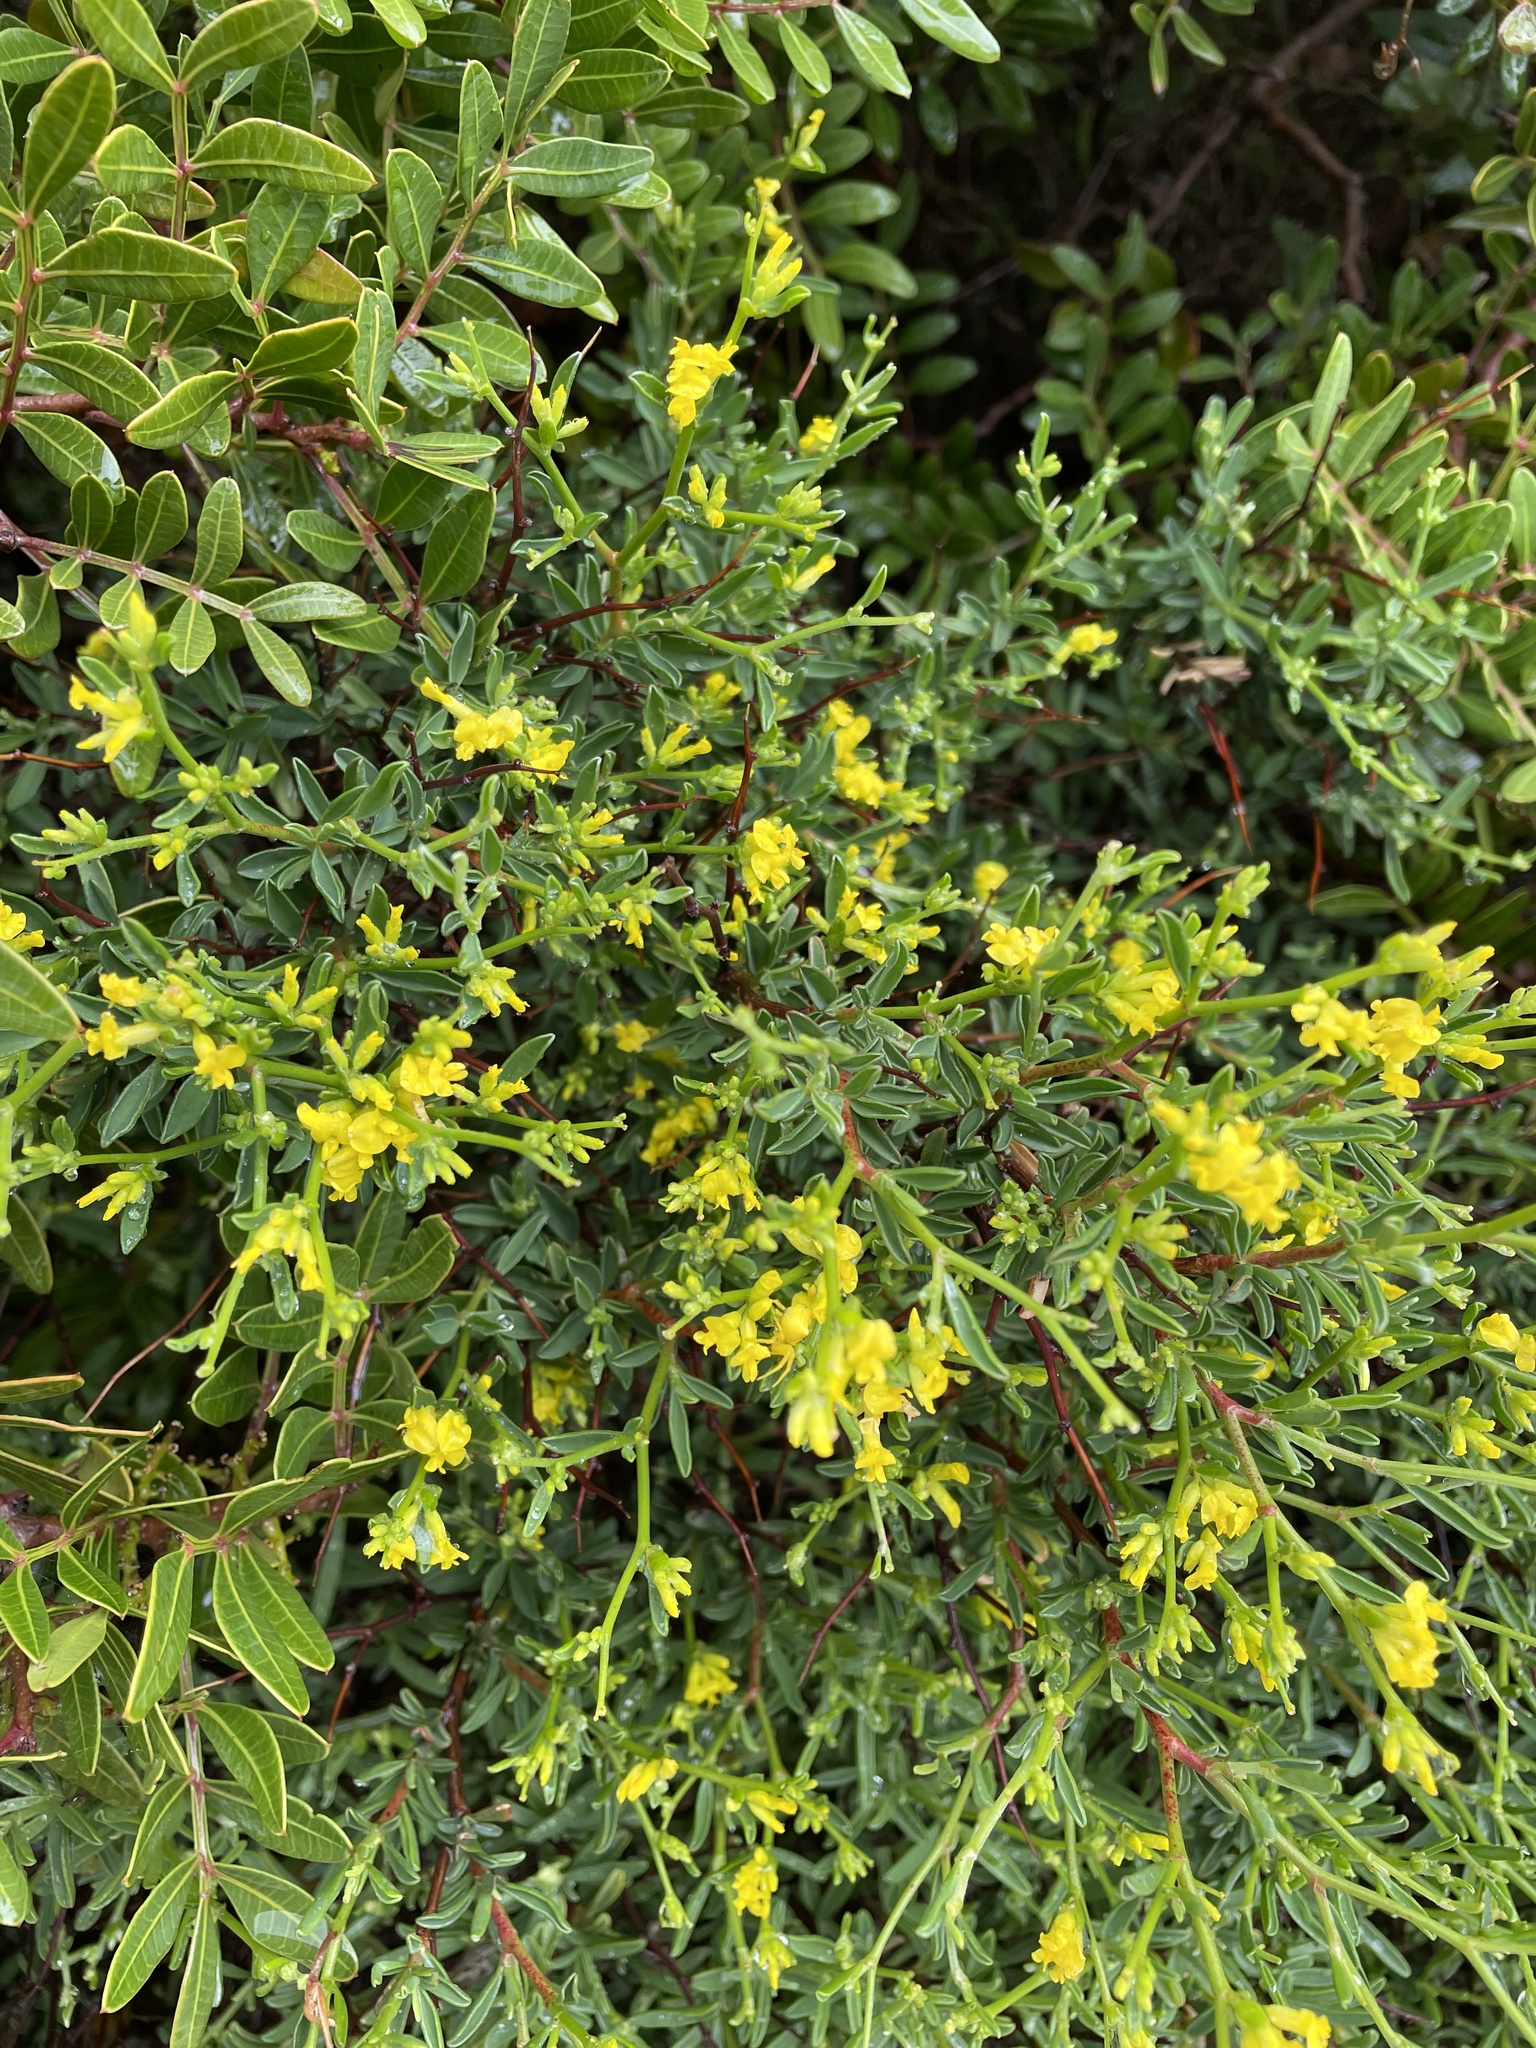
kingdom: Plantae
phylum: Tracheophyta
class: Magnoliopsida
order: Fabales
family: Fabaceae
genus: Anthyllis
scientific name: Anthyllis hermanniae
